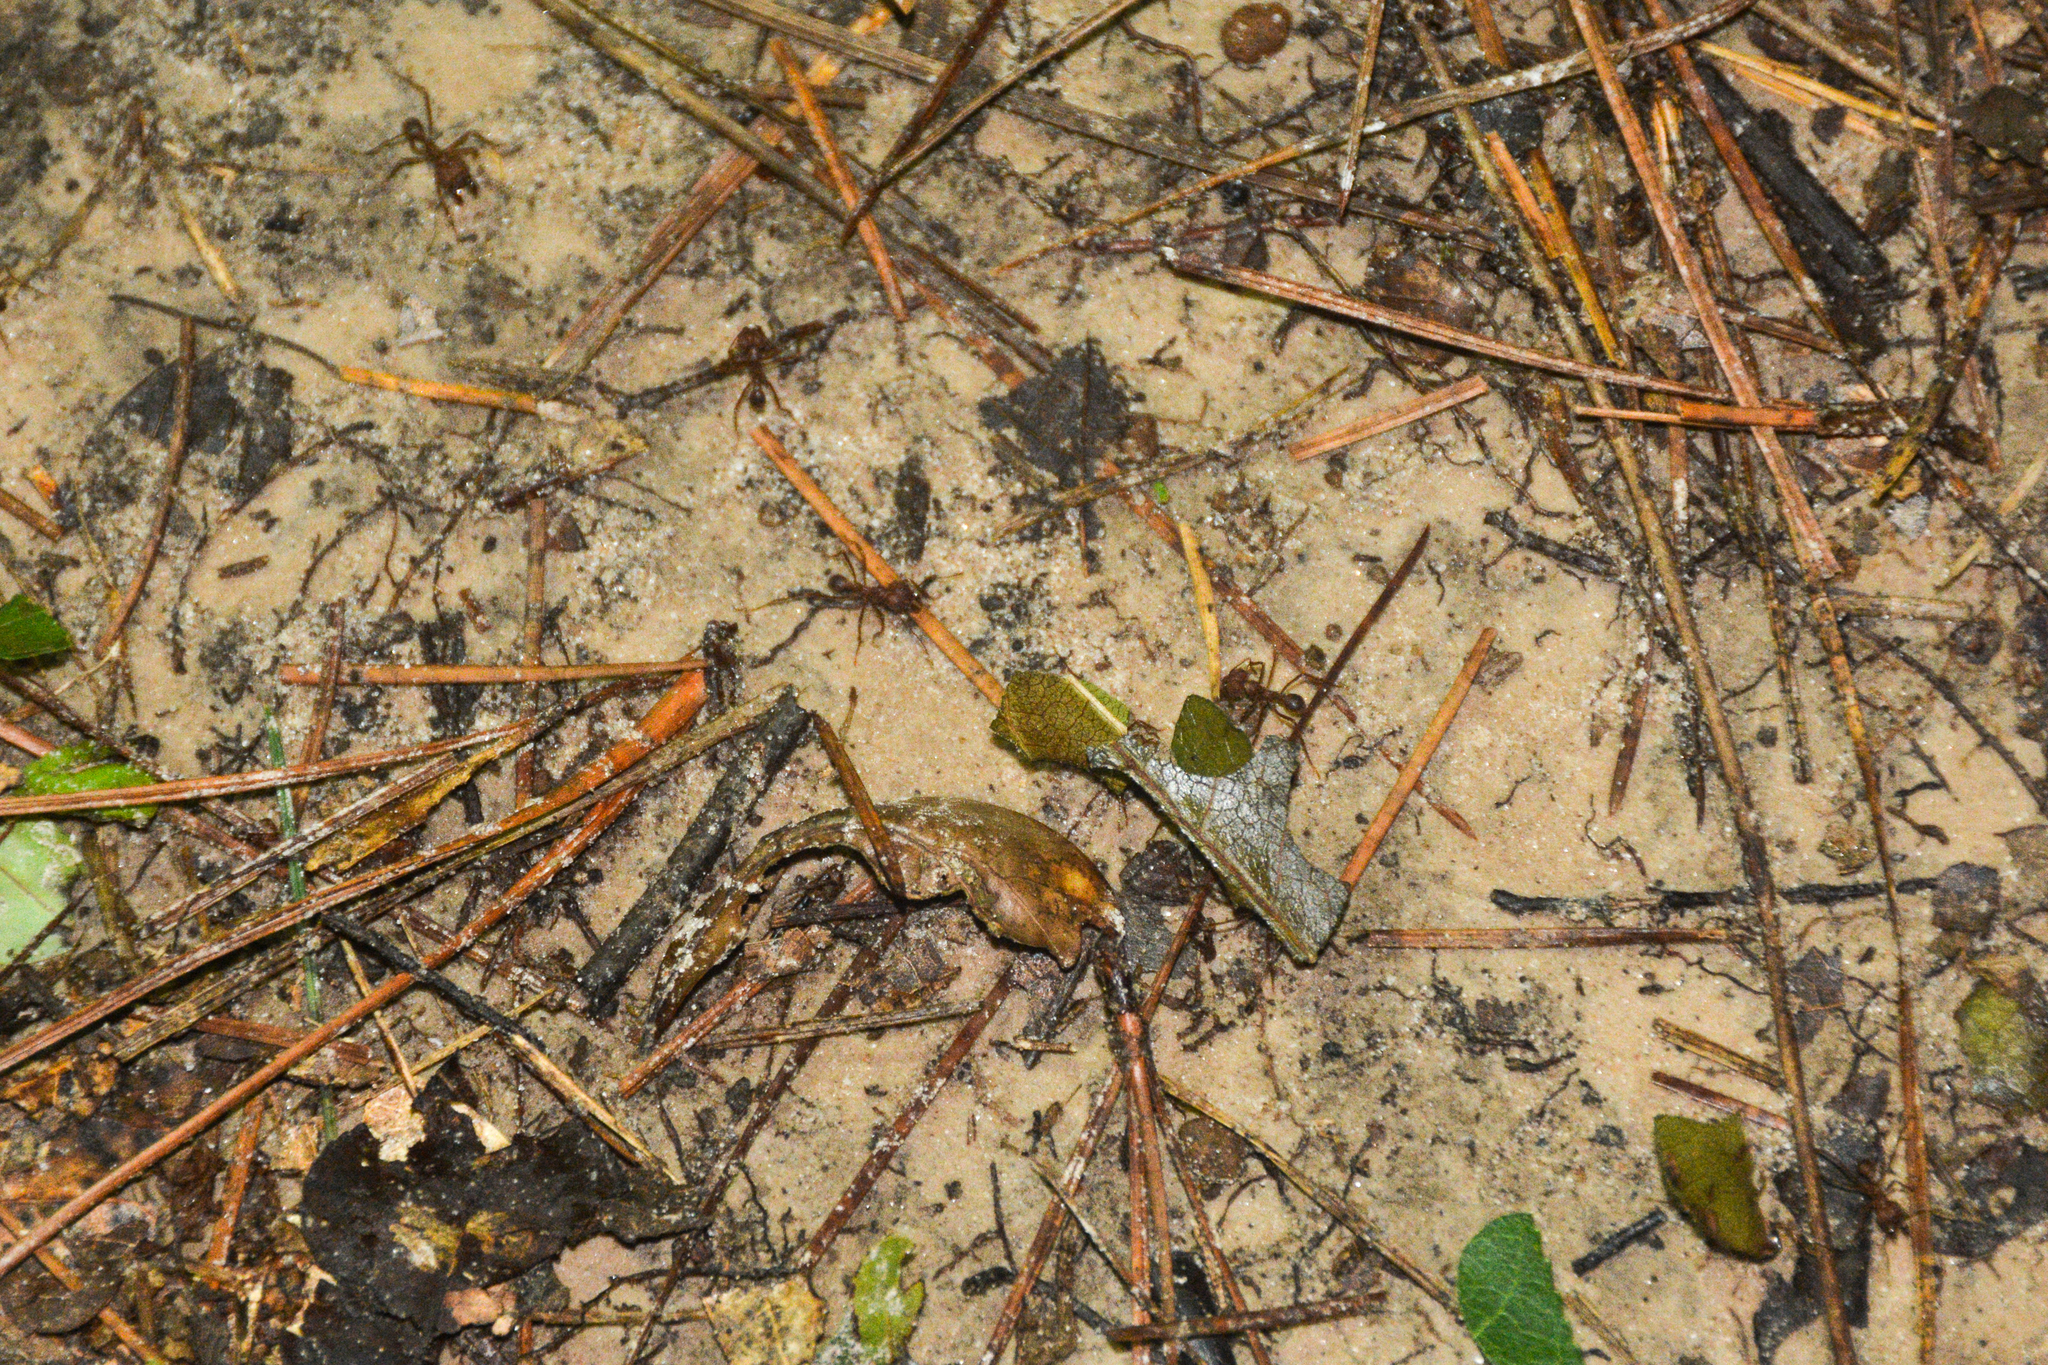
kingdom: Animalia
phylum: Arthropoda
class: Insecta
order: Hymenoptera
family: Formicidae
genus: Atta
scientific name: Atta texana
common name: Texas leafcutting ant
